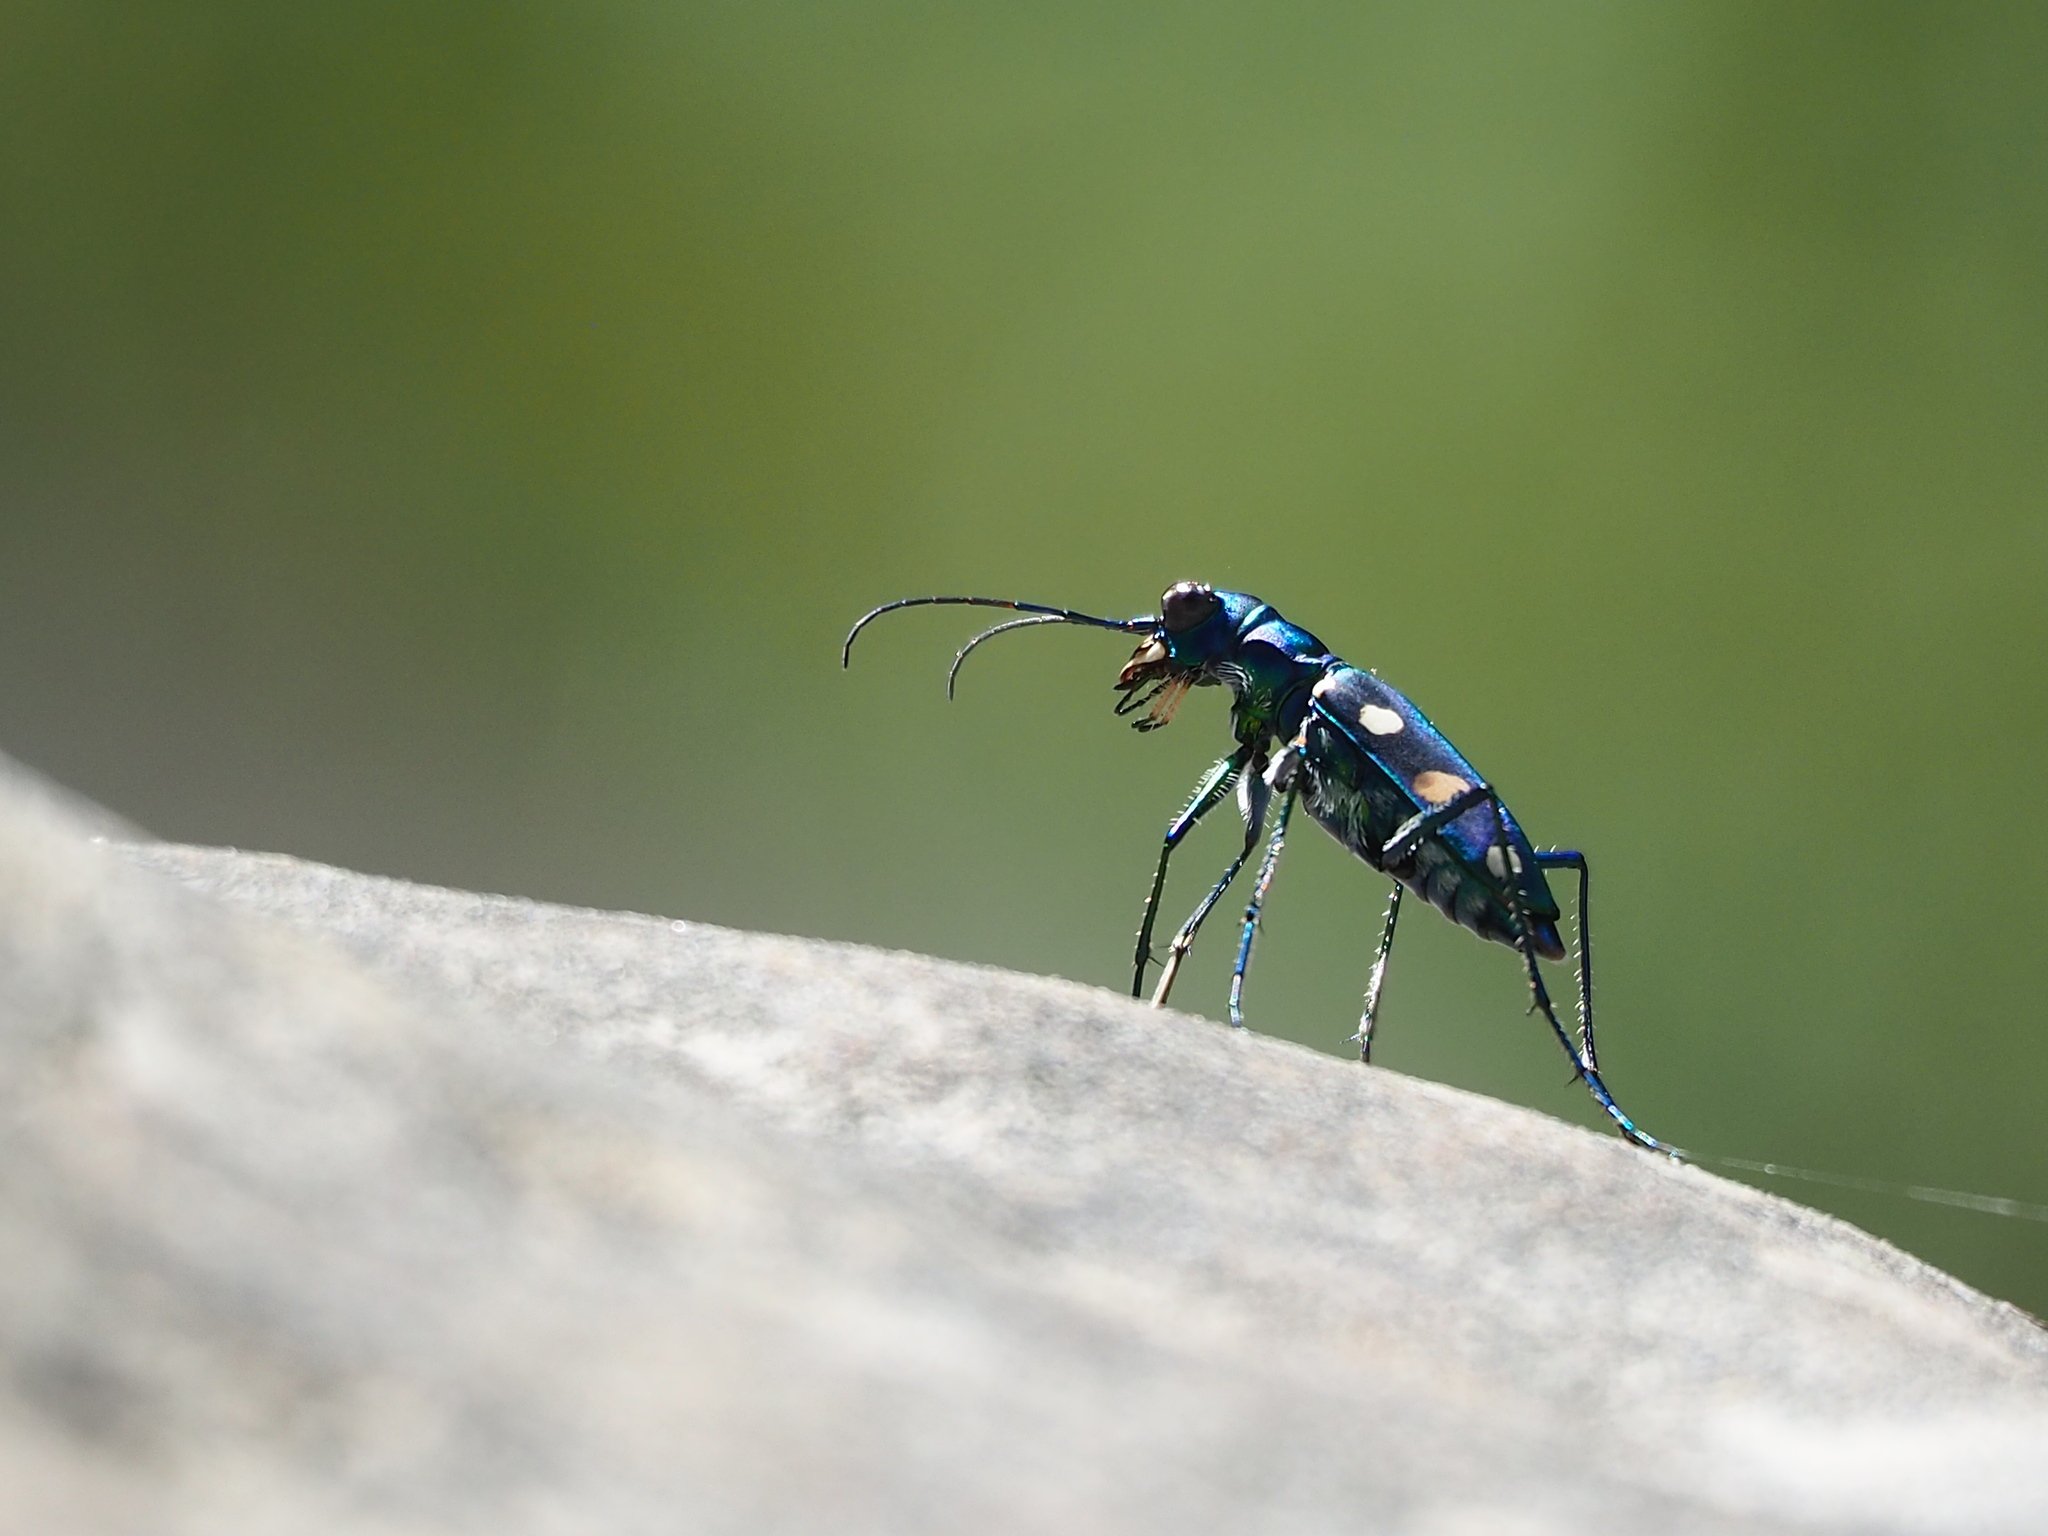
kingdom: Animalia
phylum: Arthropoda
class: Insecta
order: Coleoptera
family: Carabidae
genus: Cicindela
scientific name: Cicindela batesi
